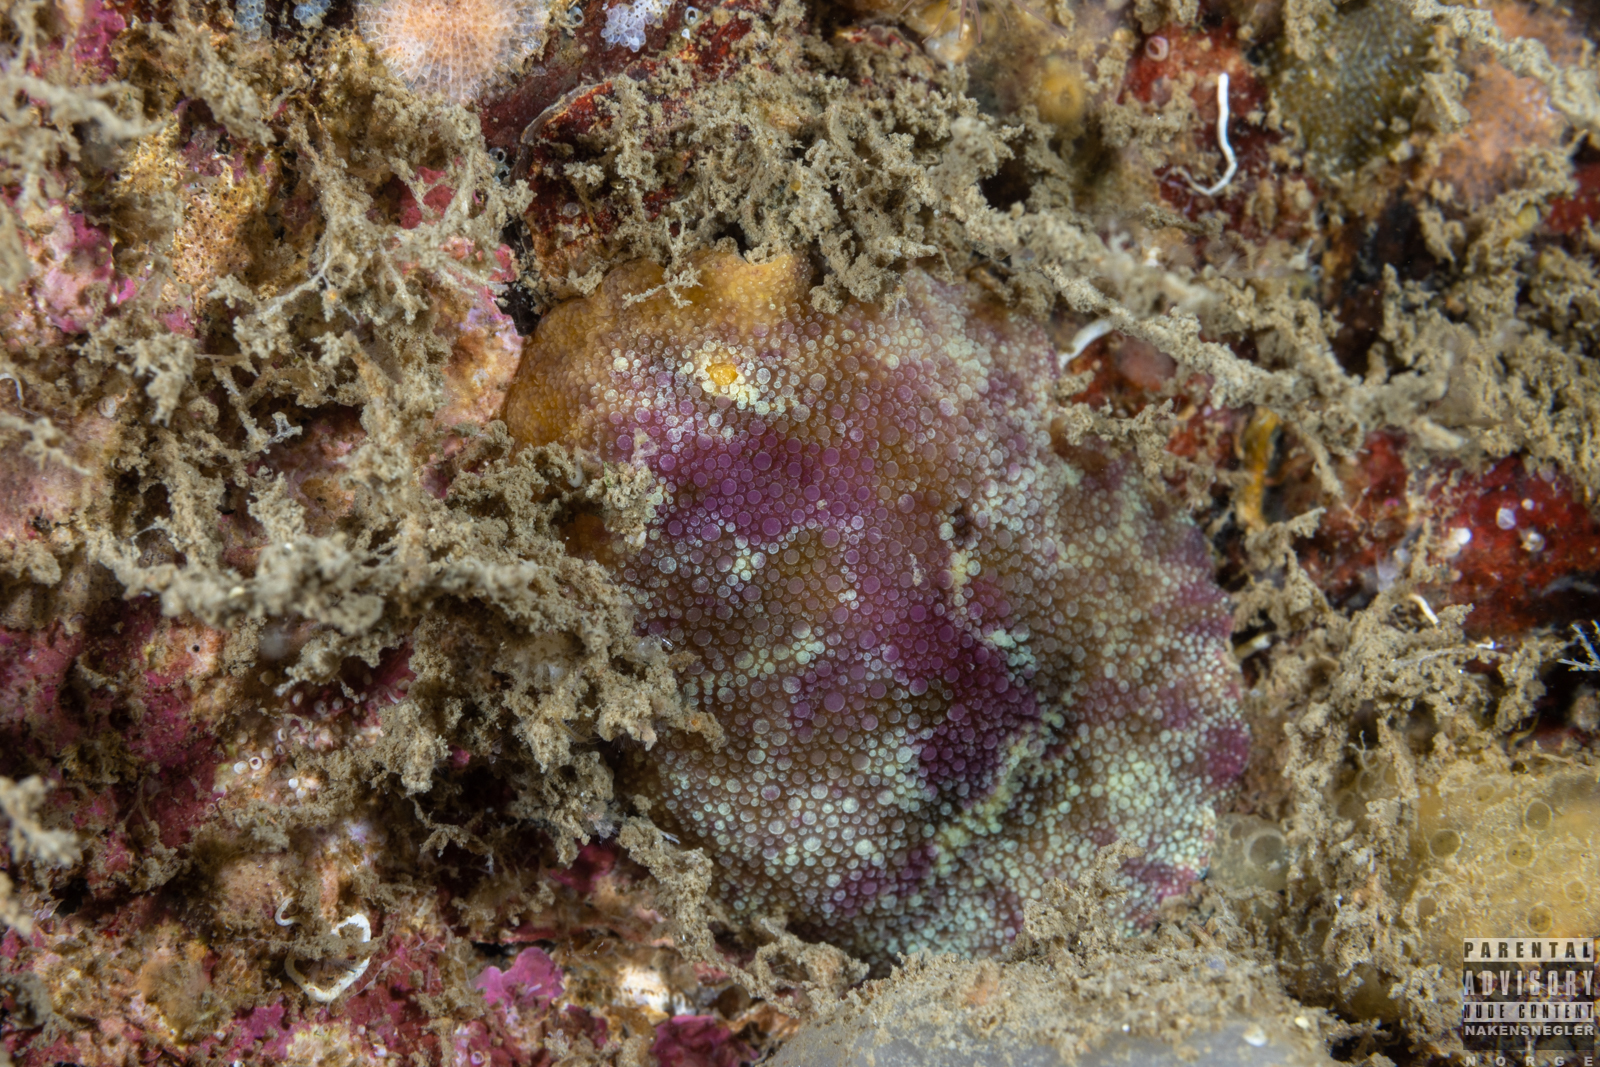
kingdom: Animalia
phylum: Mollusca
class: Gastropoda
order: Nudibranchia
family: Dorididae
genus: Doris
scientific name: Doris pseudoargus
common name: Sea lemon
